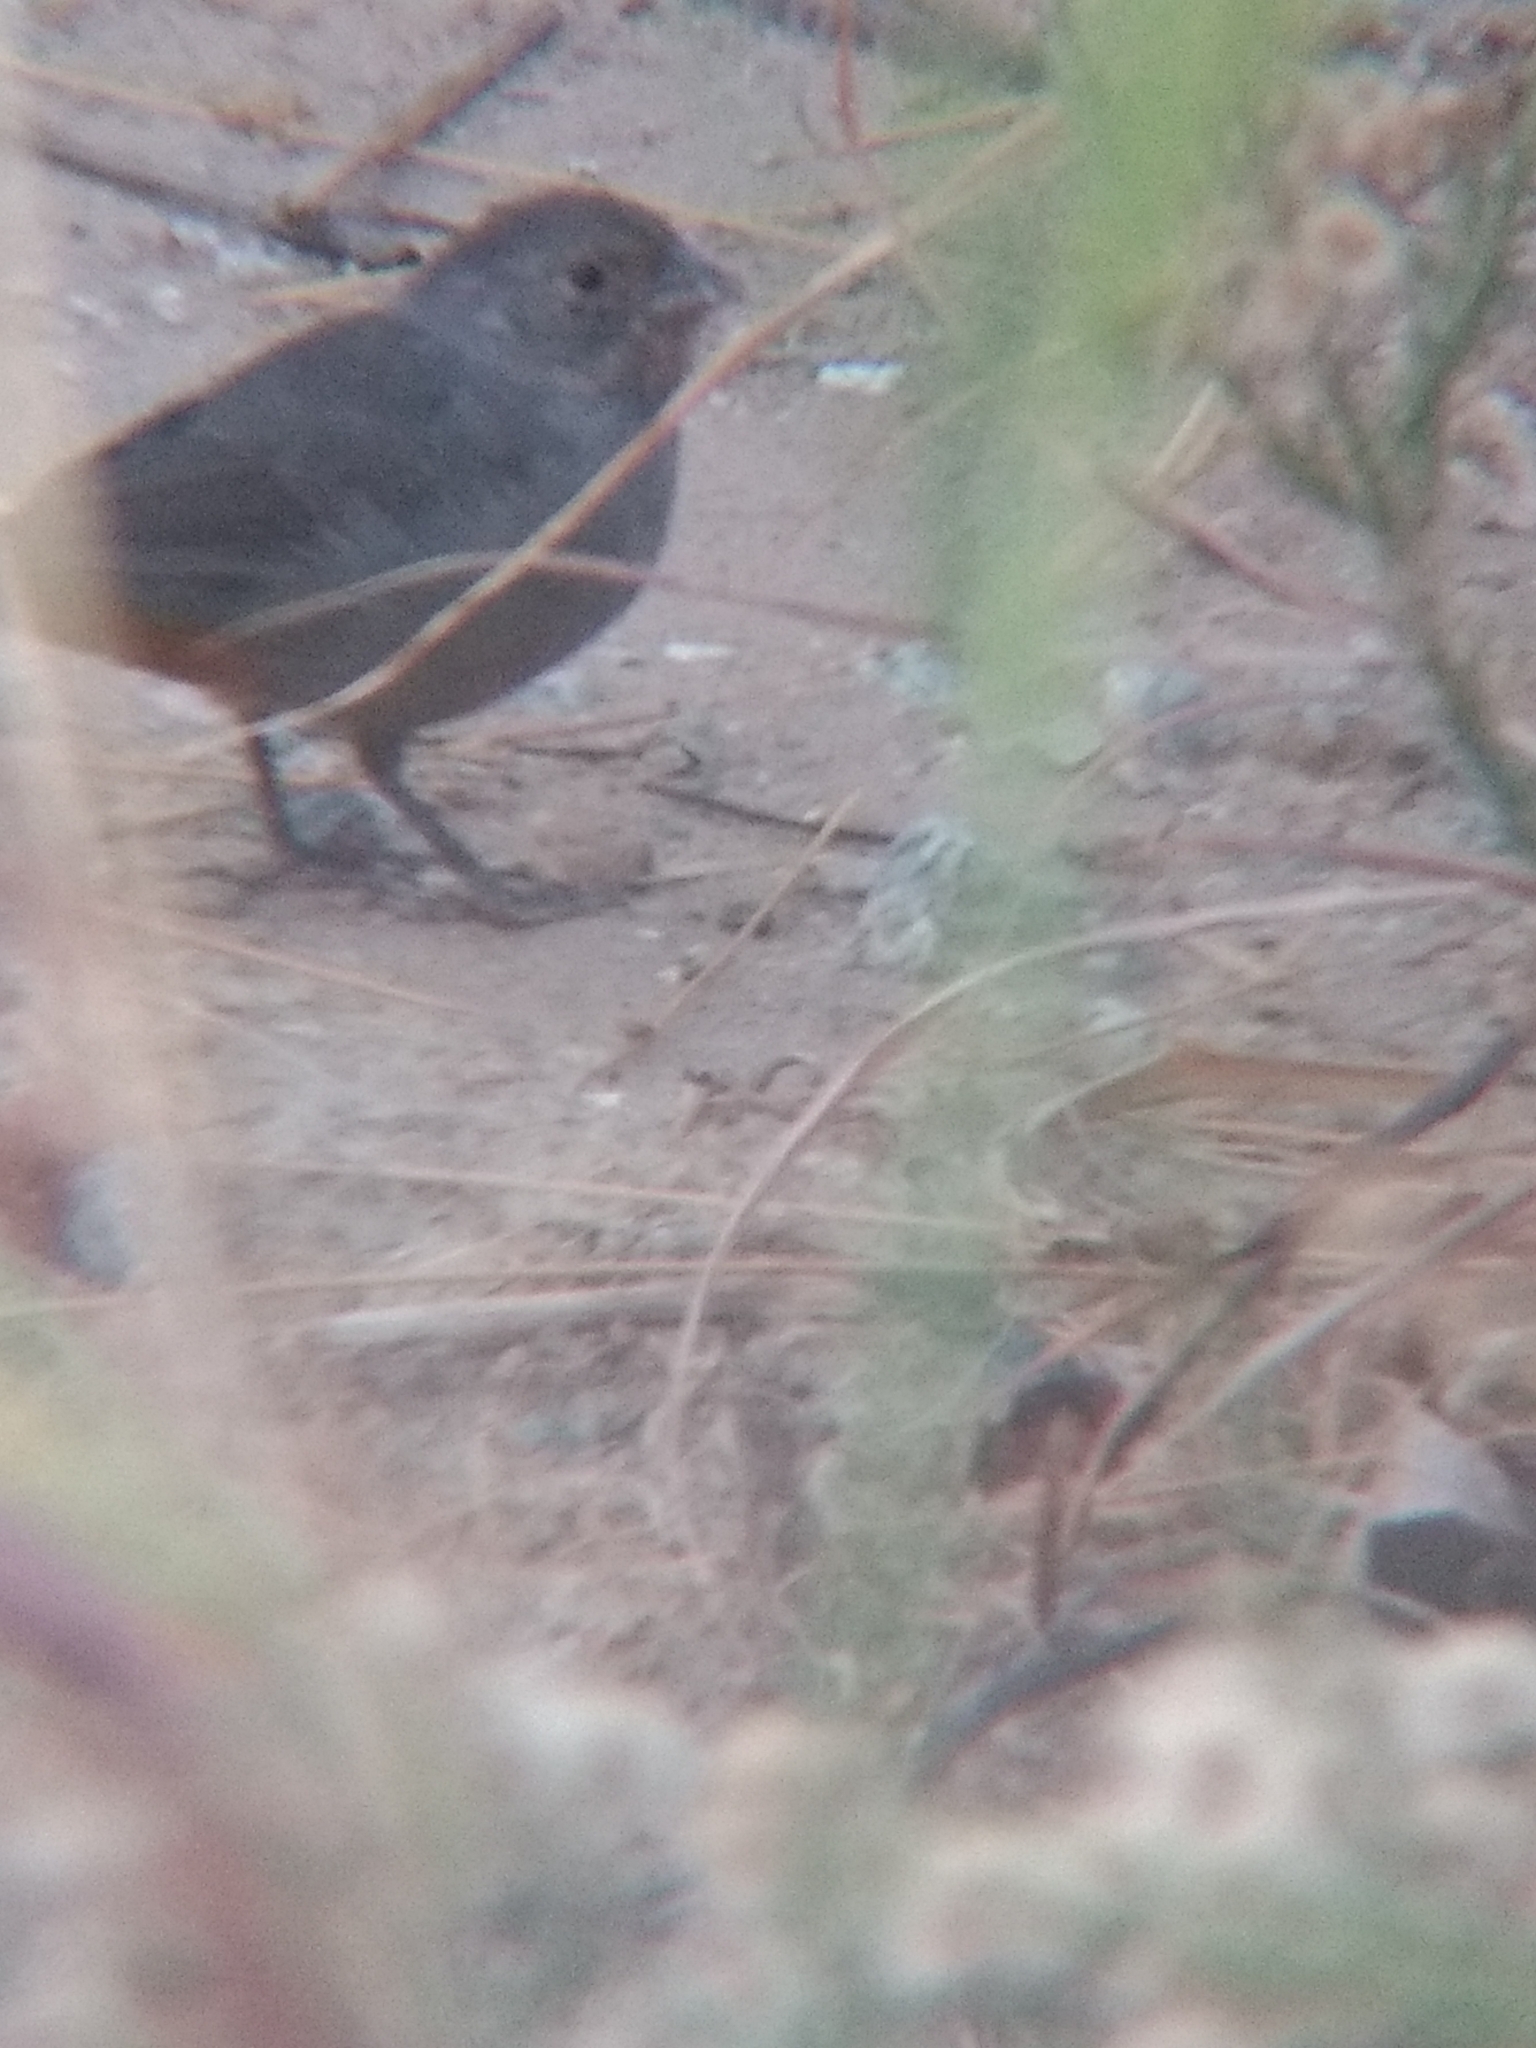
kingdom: Animalia
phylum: Chordata
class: Aves
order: Passeriformes
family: Passerellidae
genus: Melozone
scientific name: Melozone crissalis
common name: California towhee
